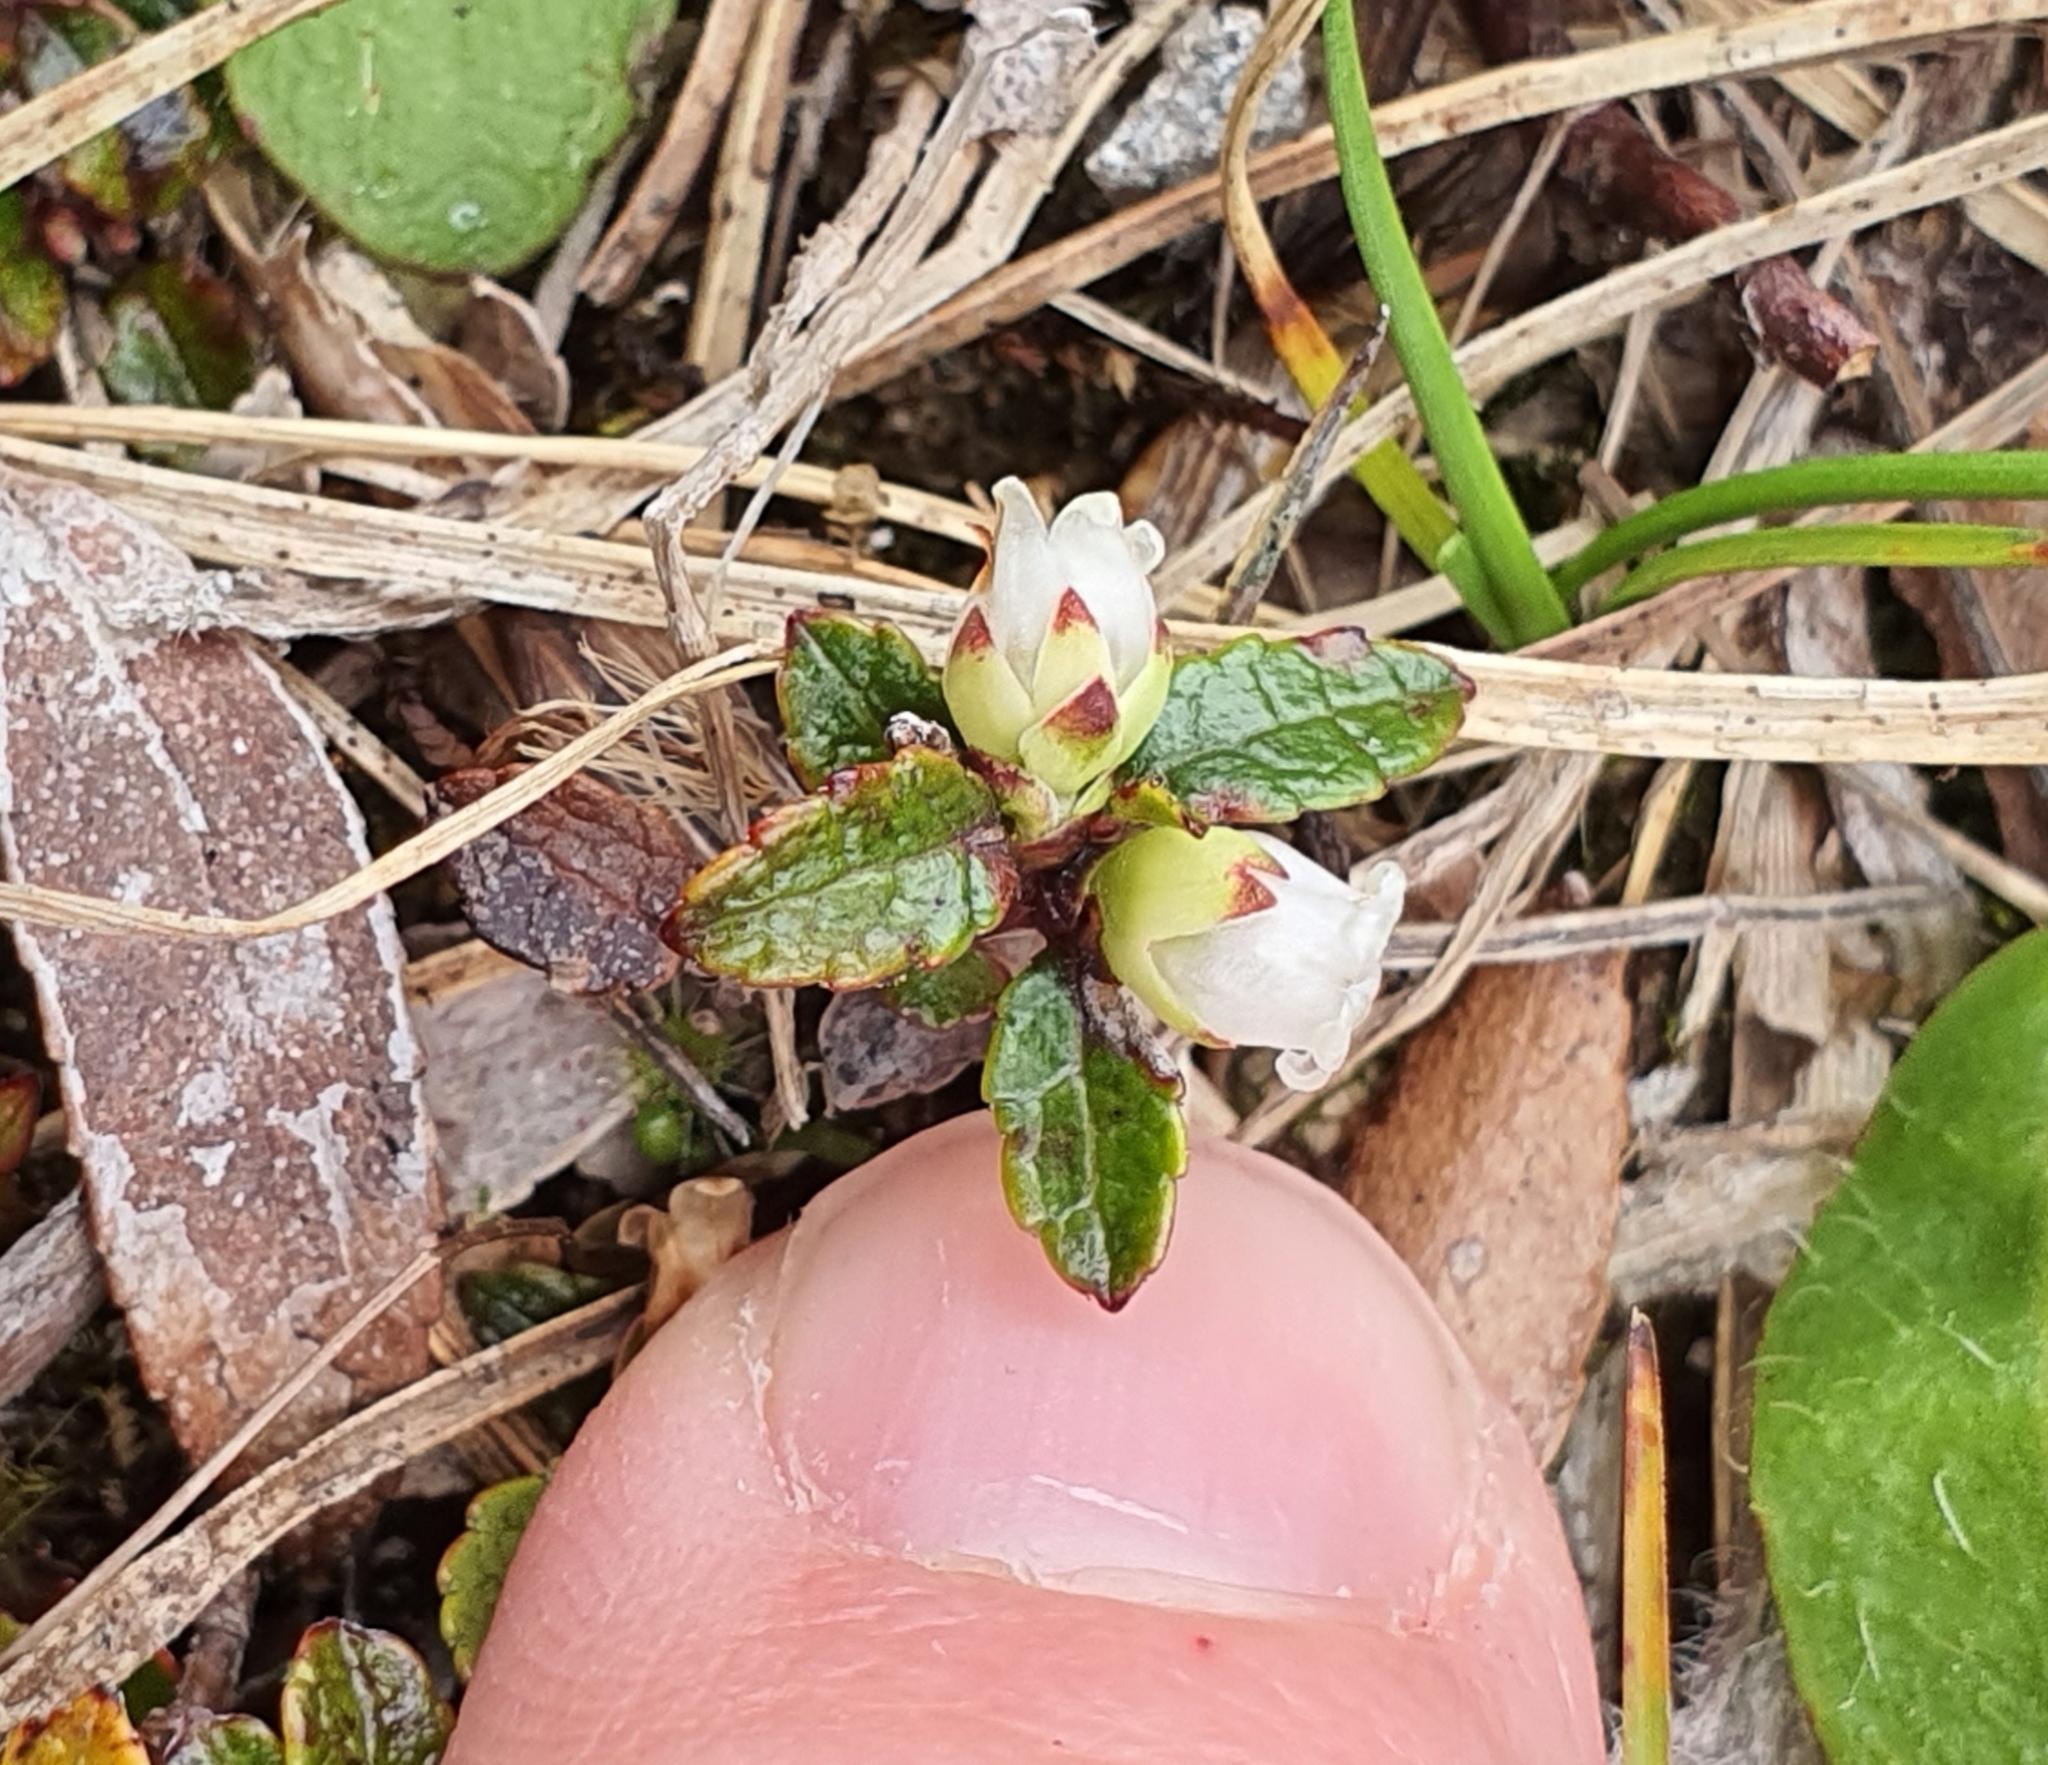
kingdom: Plantae
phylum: Tracheophyta
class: Magnoliopsida
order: Ericales
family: Ericaceae
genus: Gaultheria
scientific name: Gaultheria depressa
